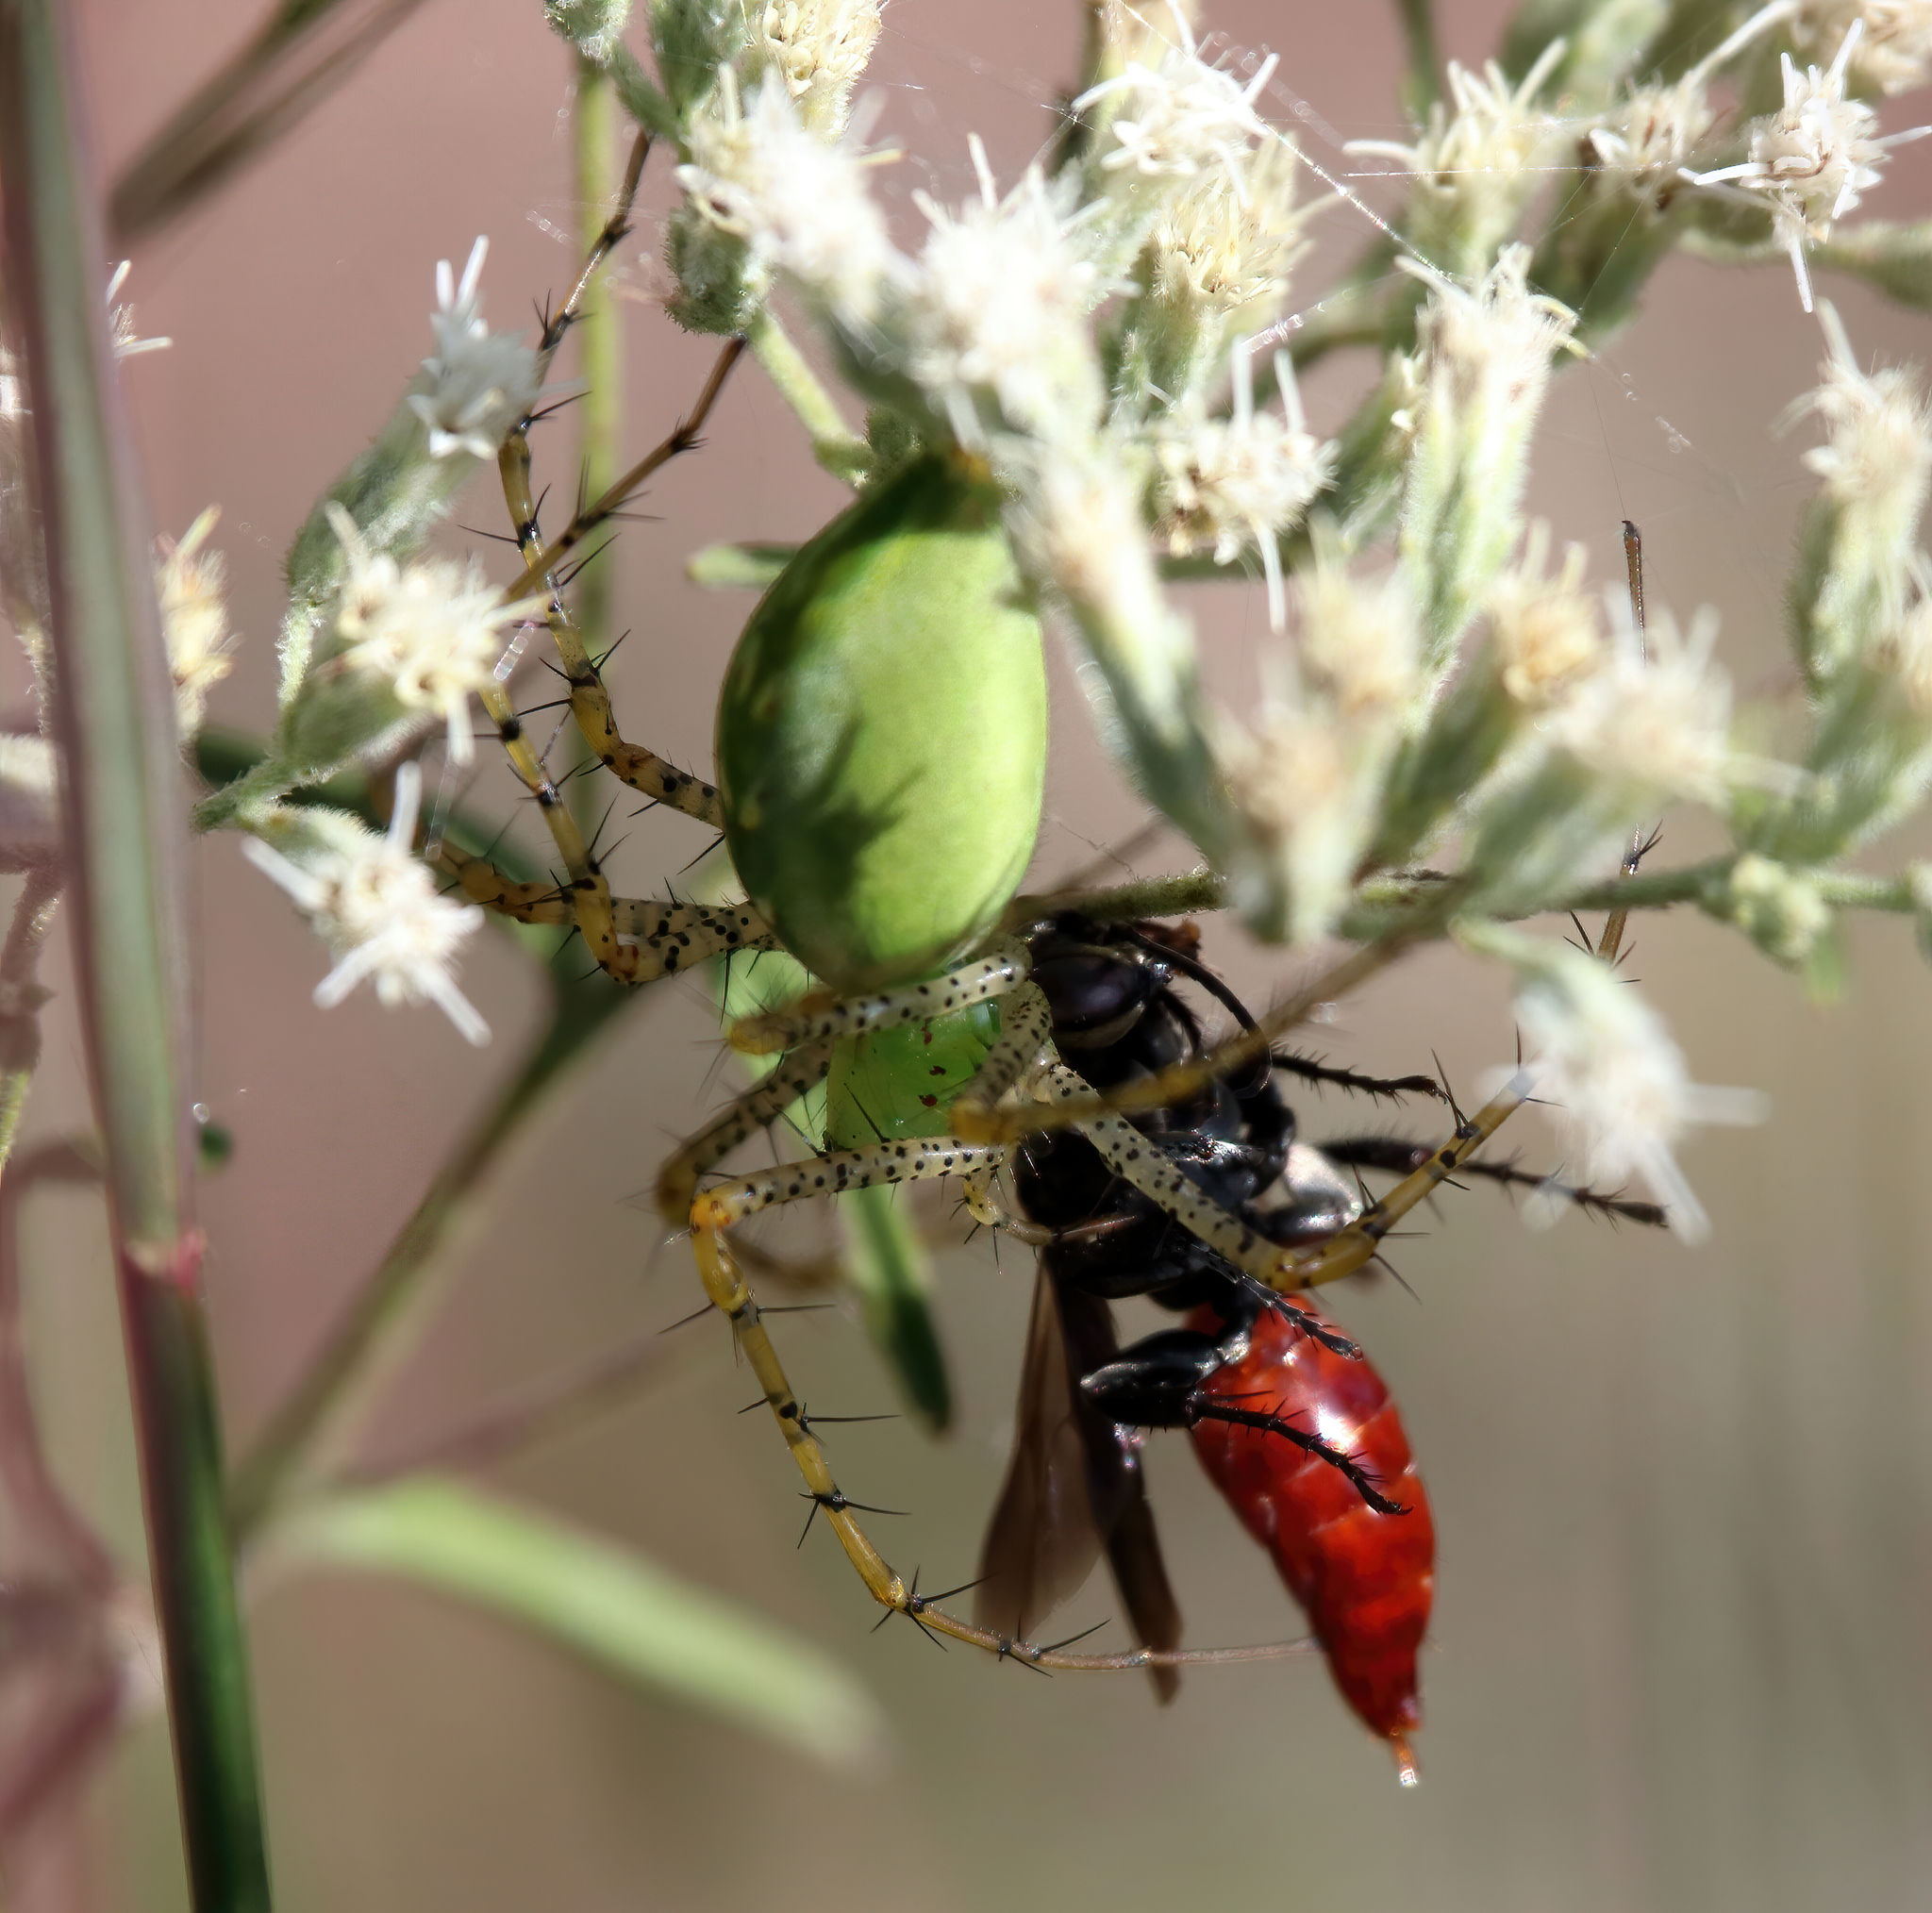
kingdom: Animalia
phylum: Arthropoda
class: Arachnida
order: Araneae
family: Oxyopidae
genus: Peucetia
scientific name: Peucetia viridans
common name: Lynx spiders
